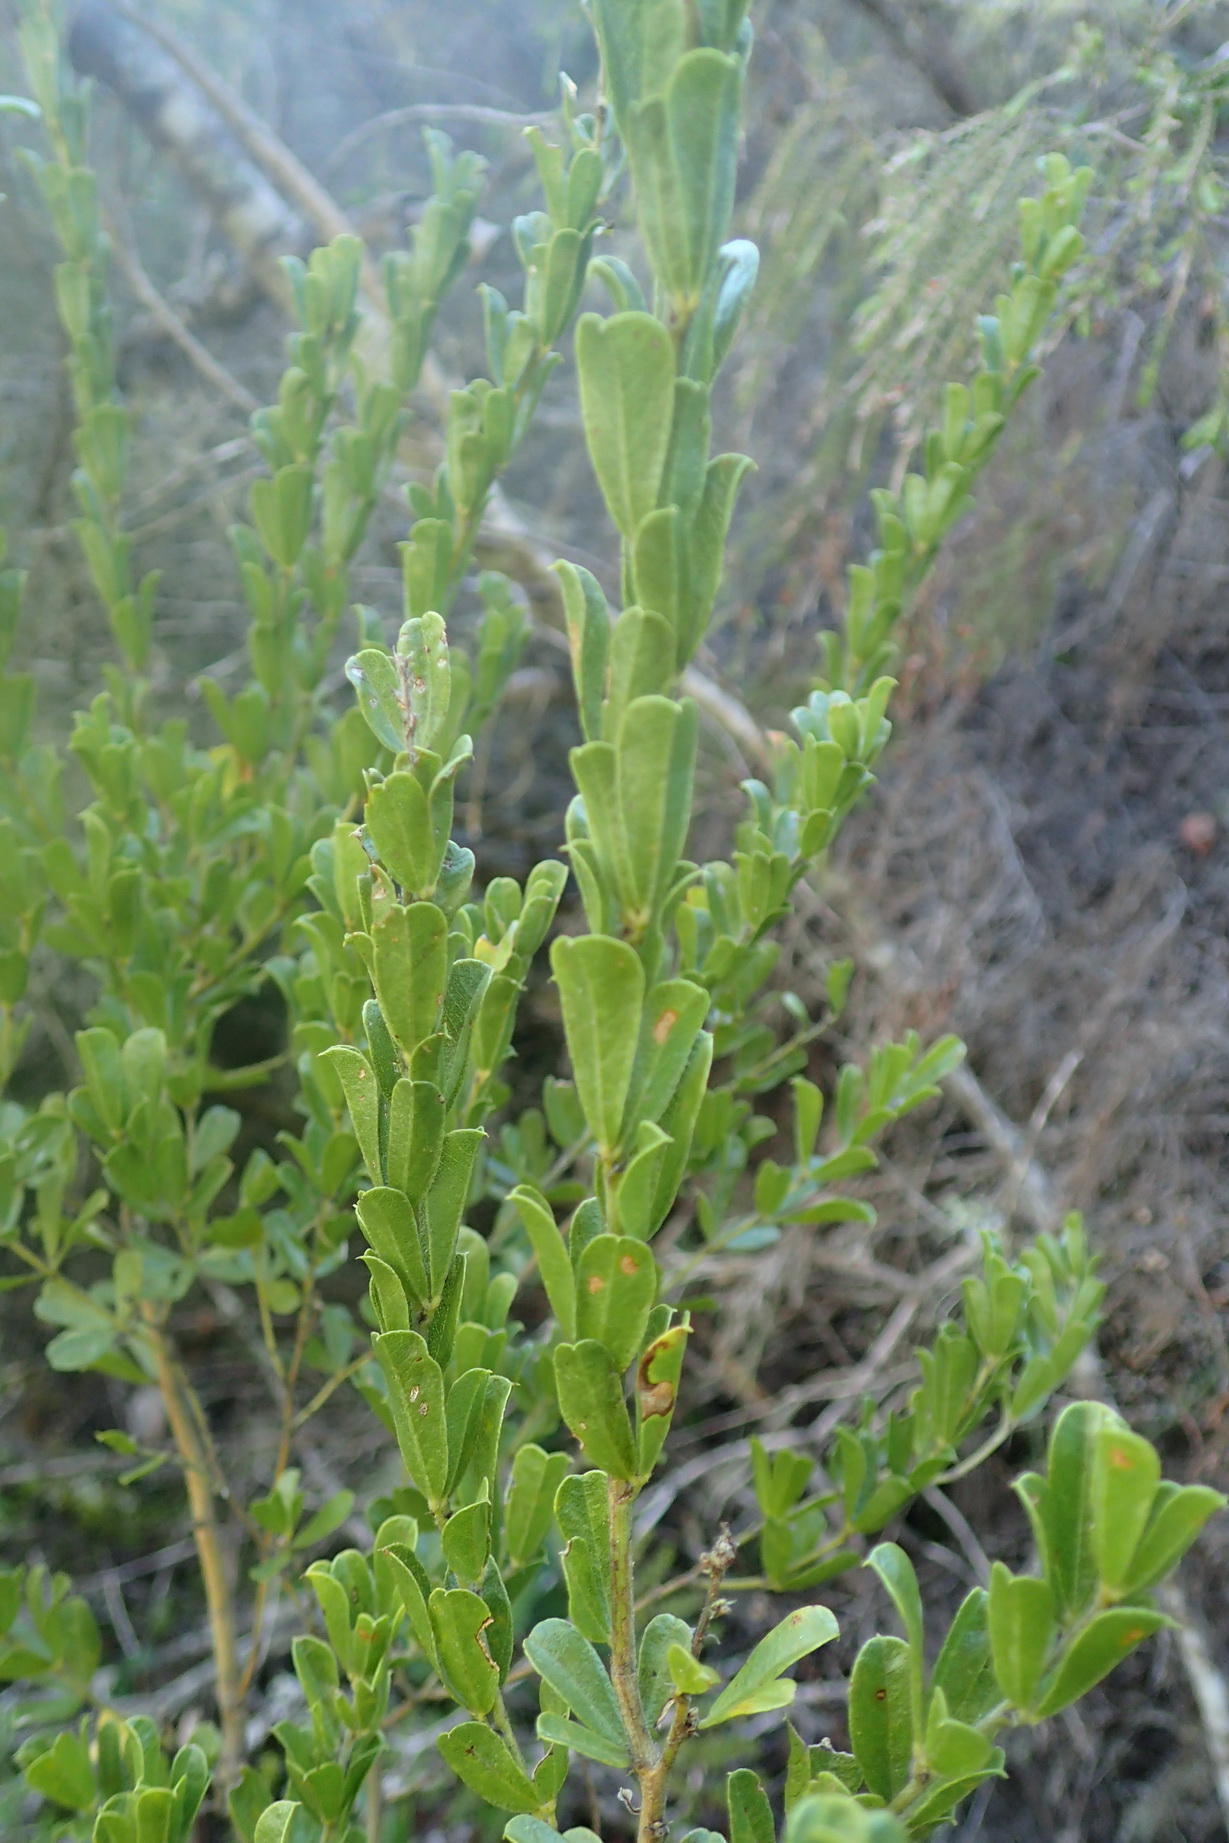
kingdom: Plantae
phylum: Tracheophyta
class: Magnoliopsida
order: Fabales
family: Fabaceae
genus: Psoralea
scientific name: Psoralea stachyera
